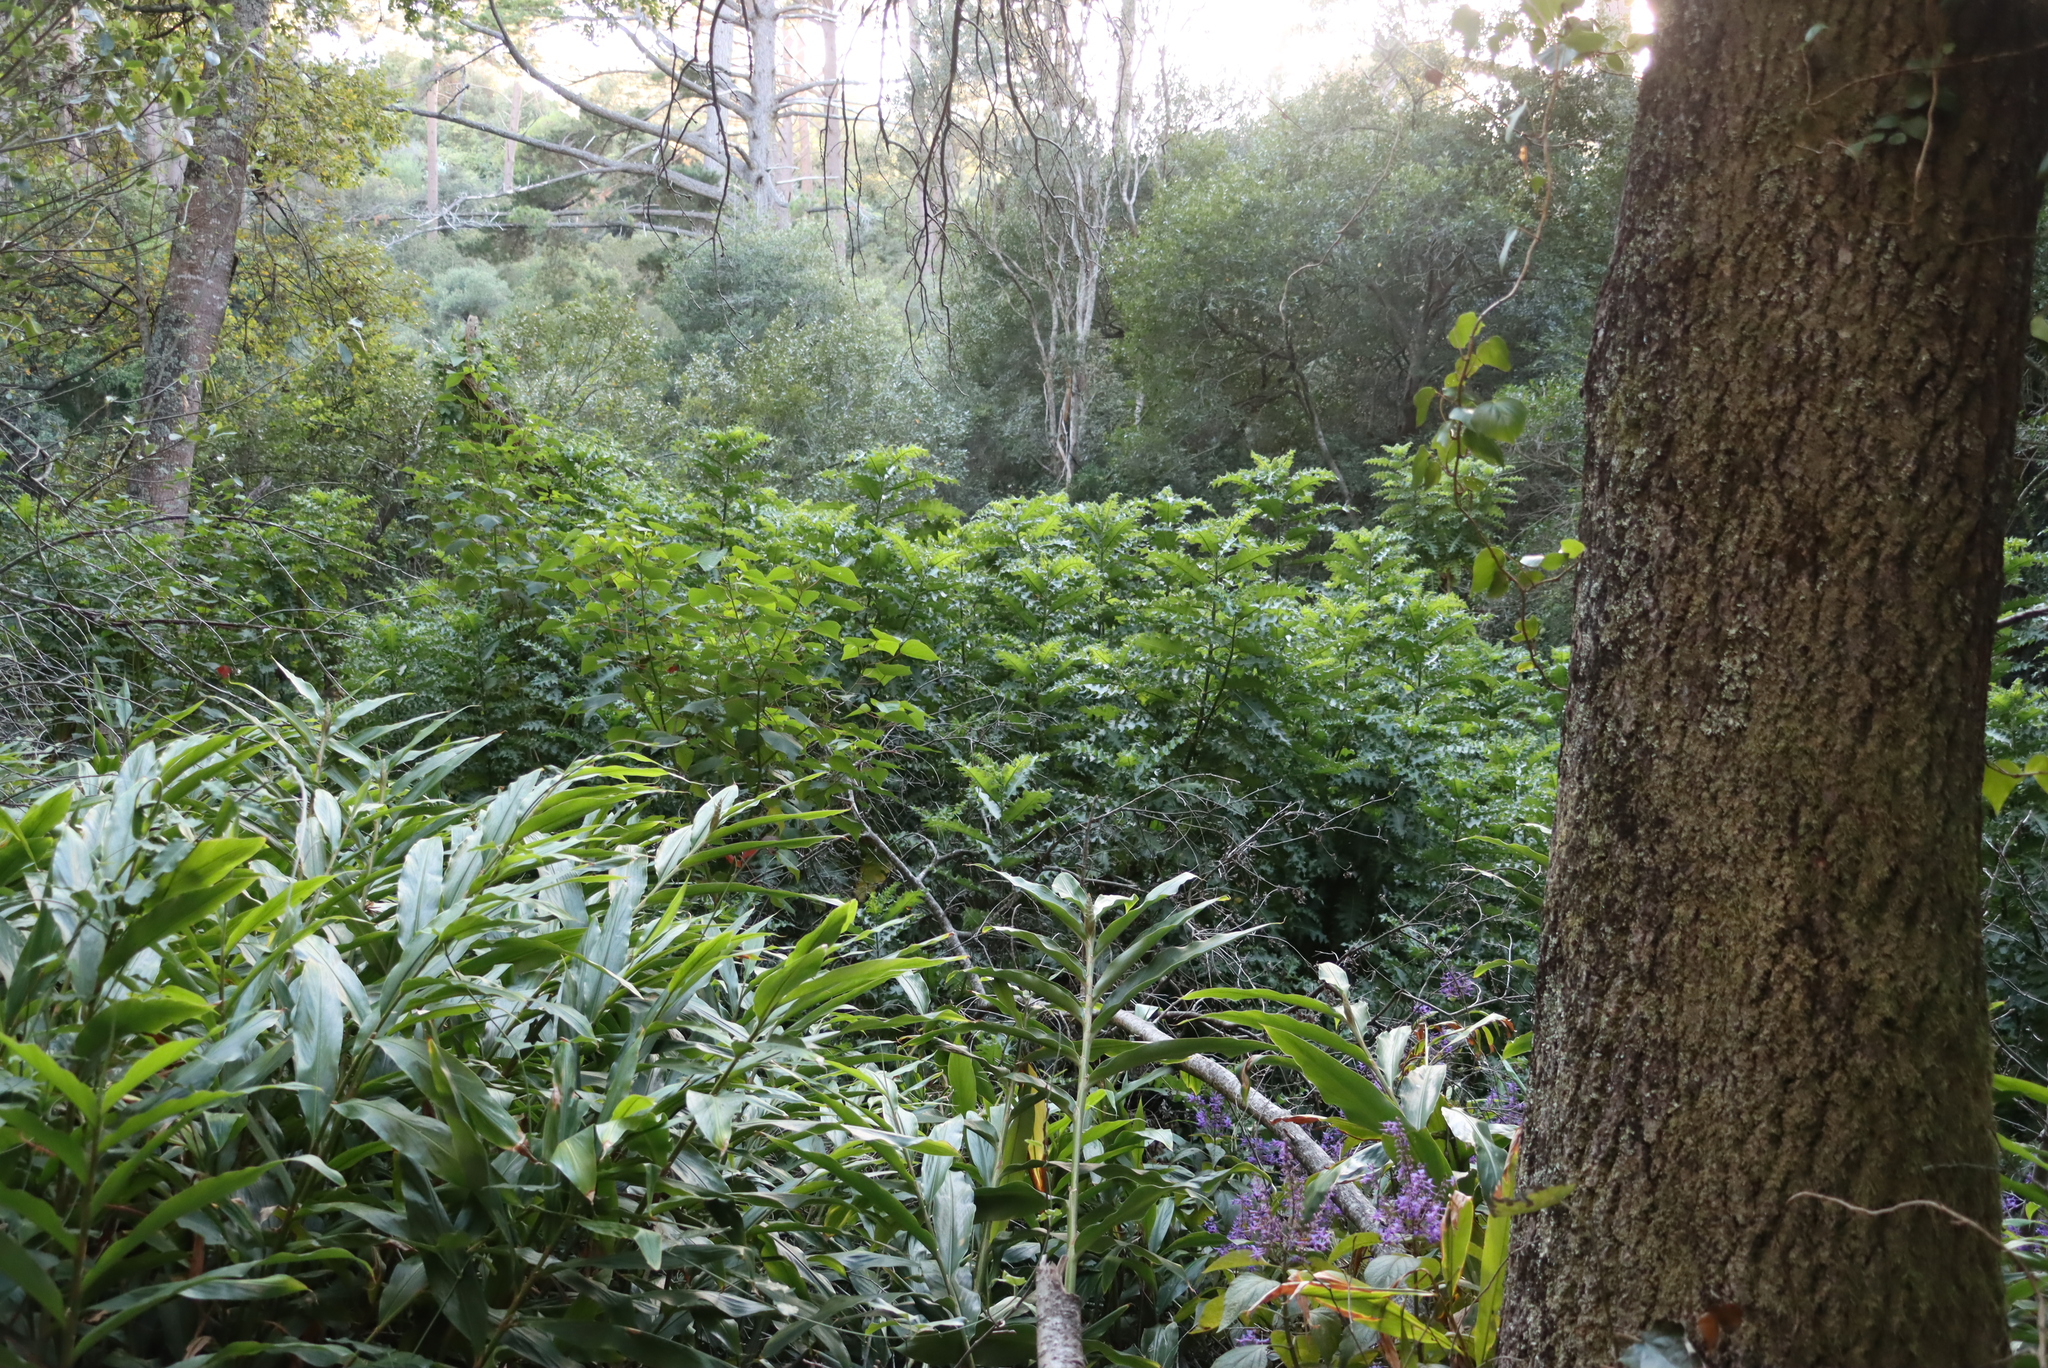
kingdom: Plantae
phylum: Tracheophyta
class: Magnoliopsida
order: Lamiales
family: Acanthaceae
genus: Acanthus
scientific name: Acanthus polystachyus
